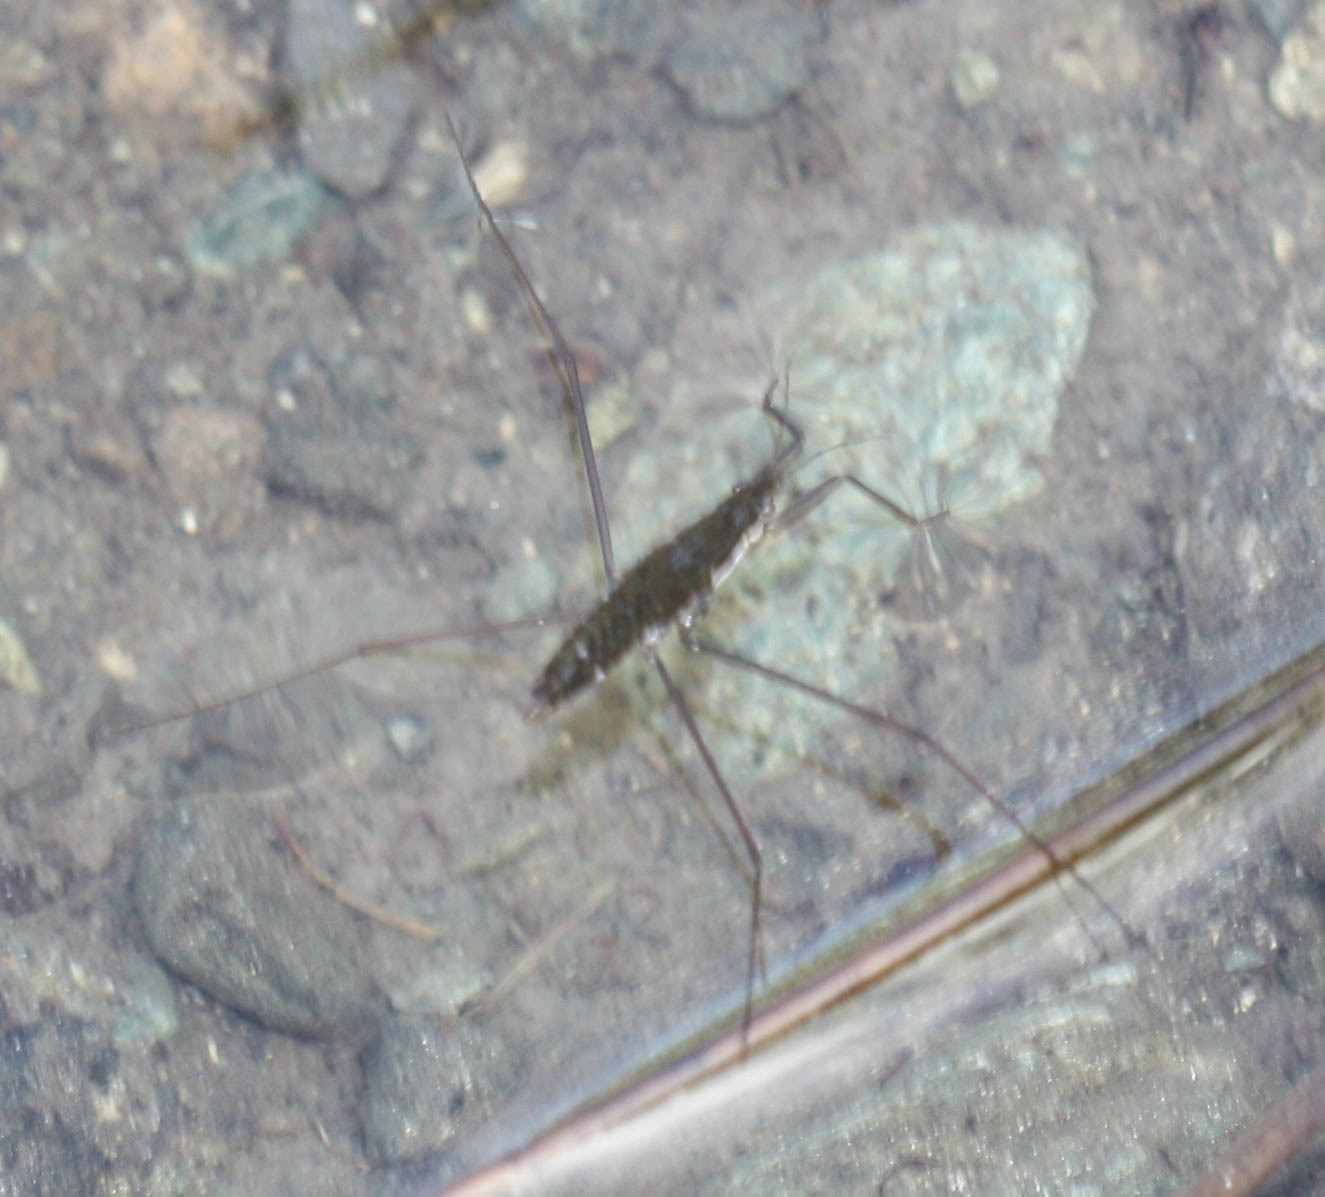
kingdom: Animalia
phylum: Arthropoda
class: Insecta
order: Hemiptera
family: Gerridae
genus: Aquarius
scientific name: Aquarius remigis
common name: Common water strider
